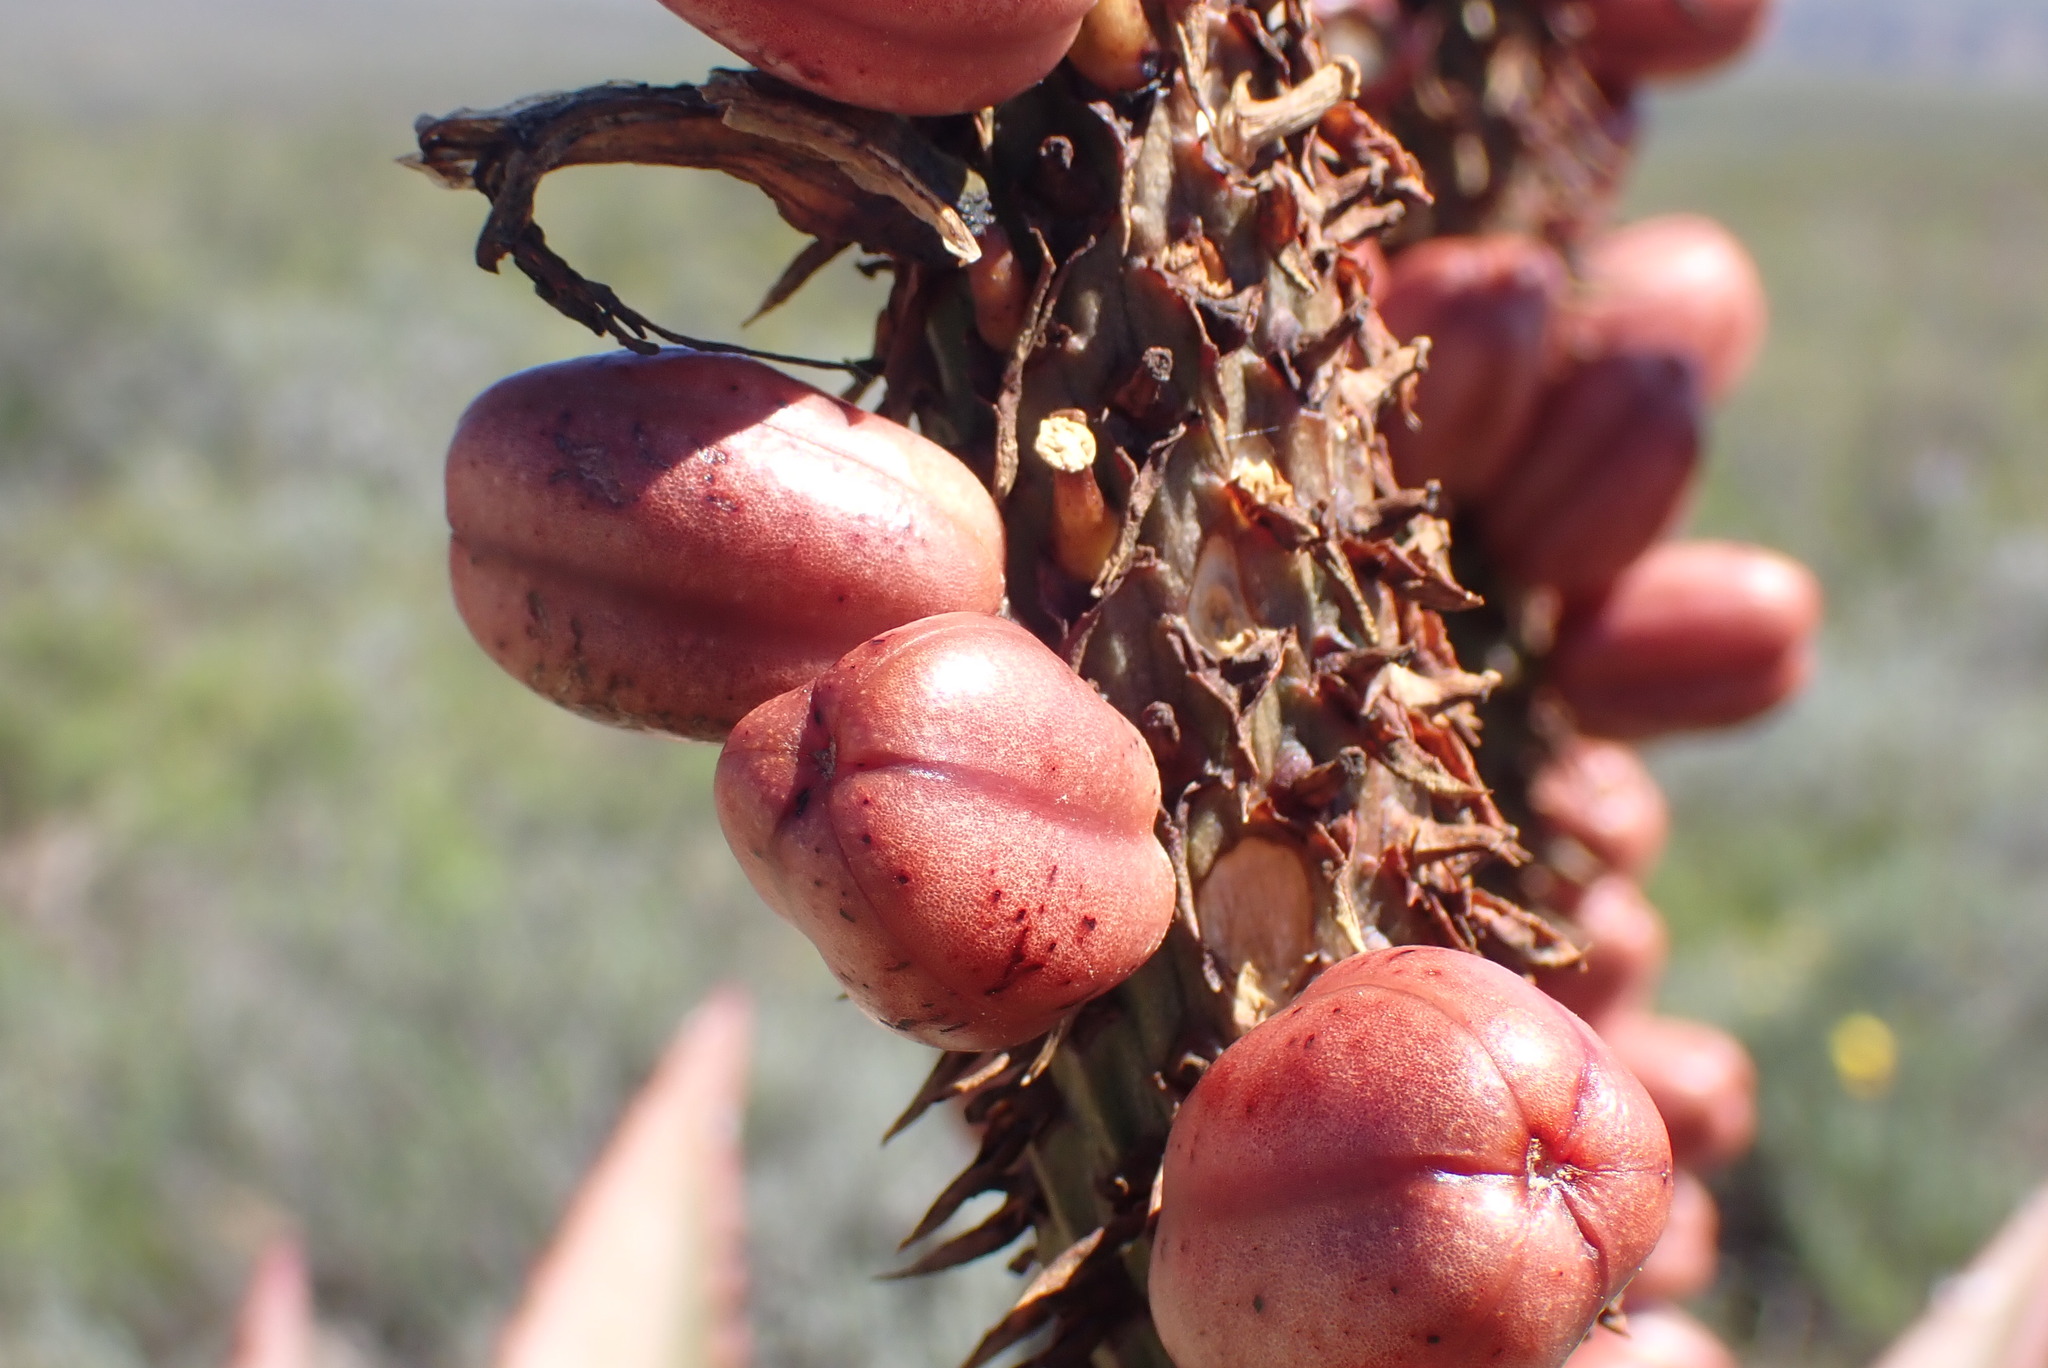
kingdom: Plantae
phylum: Tracheophyta
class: Liliopsida
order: Asparagales
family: Asphodelaceae
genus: Aloe
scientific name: Aloe ferox
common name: Bitter aloe
